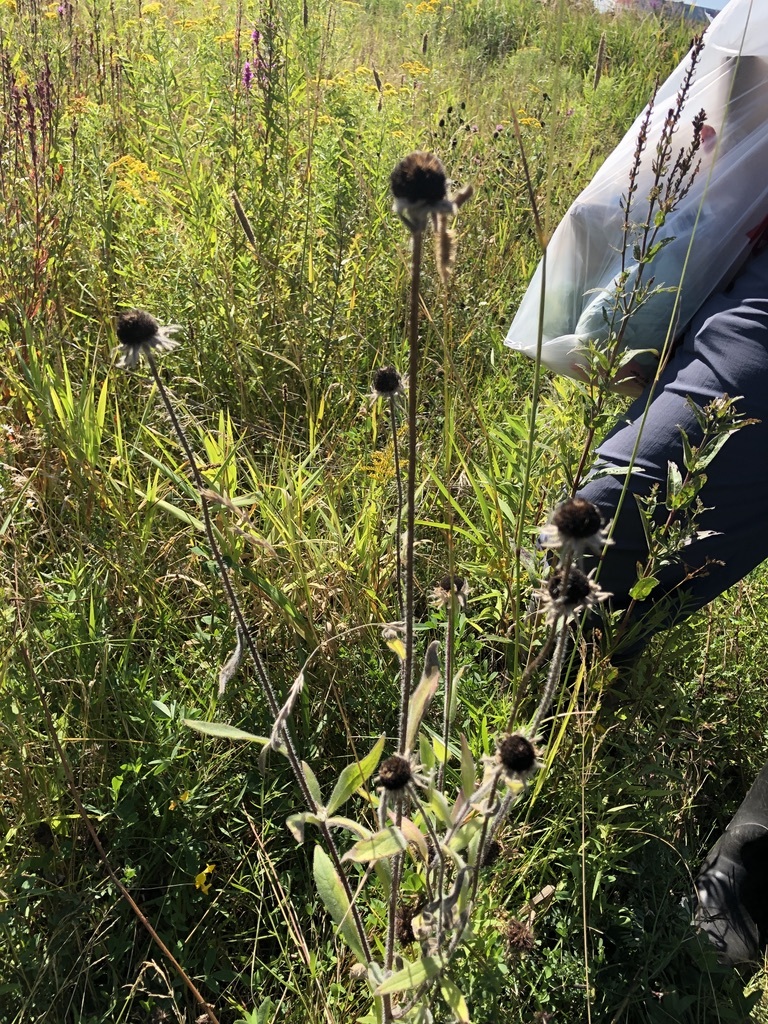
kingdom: Plantae
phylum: Tracheophyta
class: Magnoliopsida
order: Asterales
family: Asteraceae
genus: Rudbeckia
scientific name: Rudbeckia hirta
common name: Black-eyed-susan
